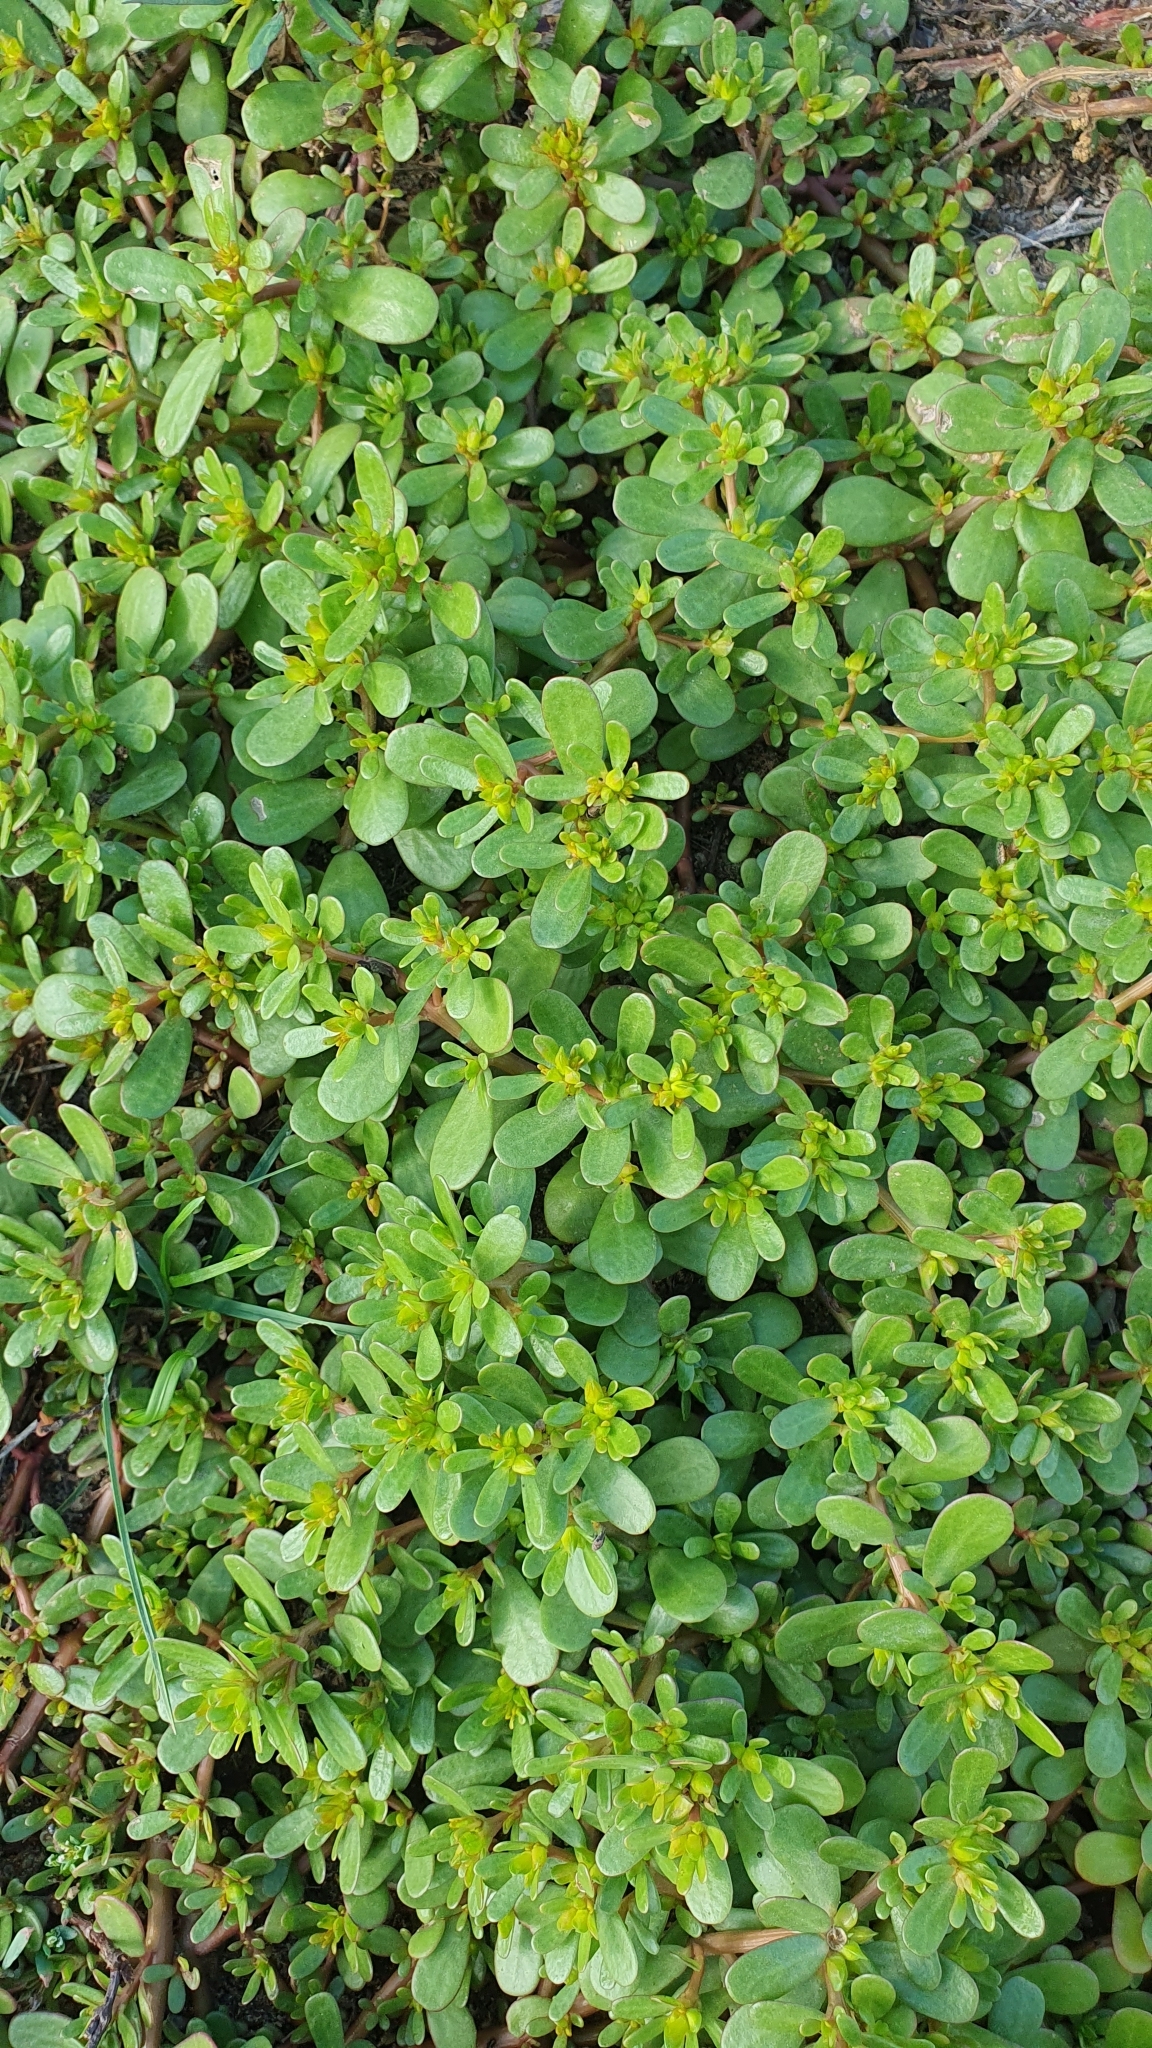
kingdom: Plantae
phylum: Tracheophyta
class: Magnoliopsida
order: Caryophyllales
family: Portulacaceae
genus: Portulaca
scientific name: Portulaca oleracea
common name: Common purslane
